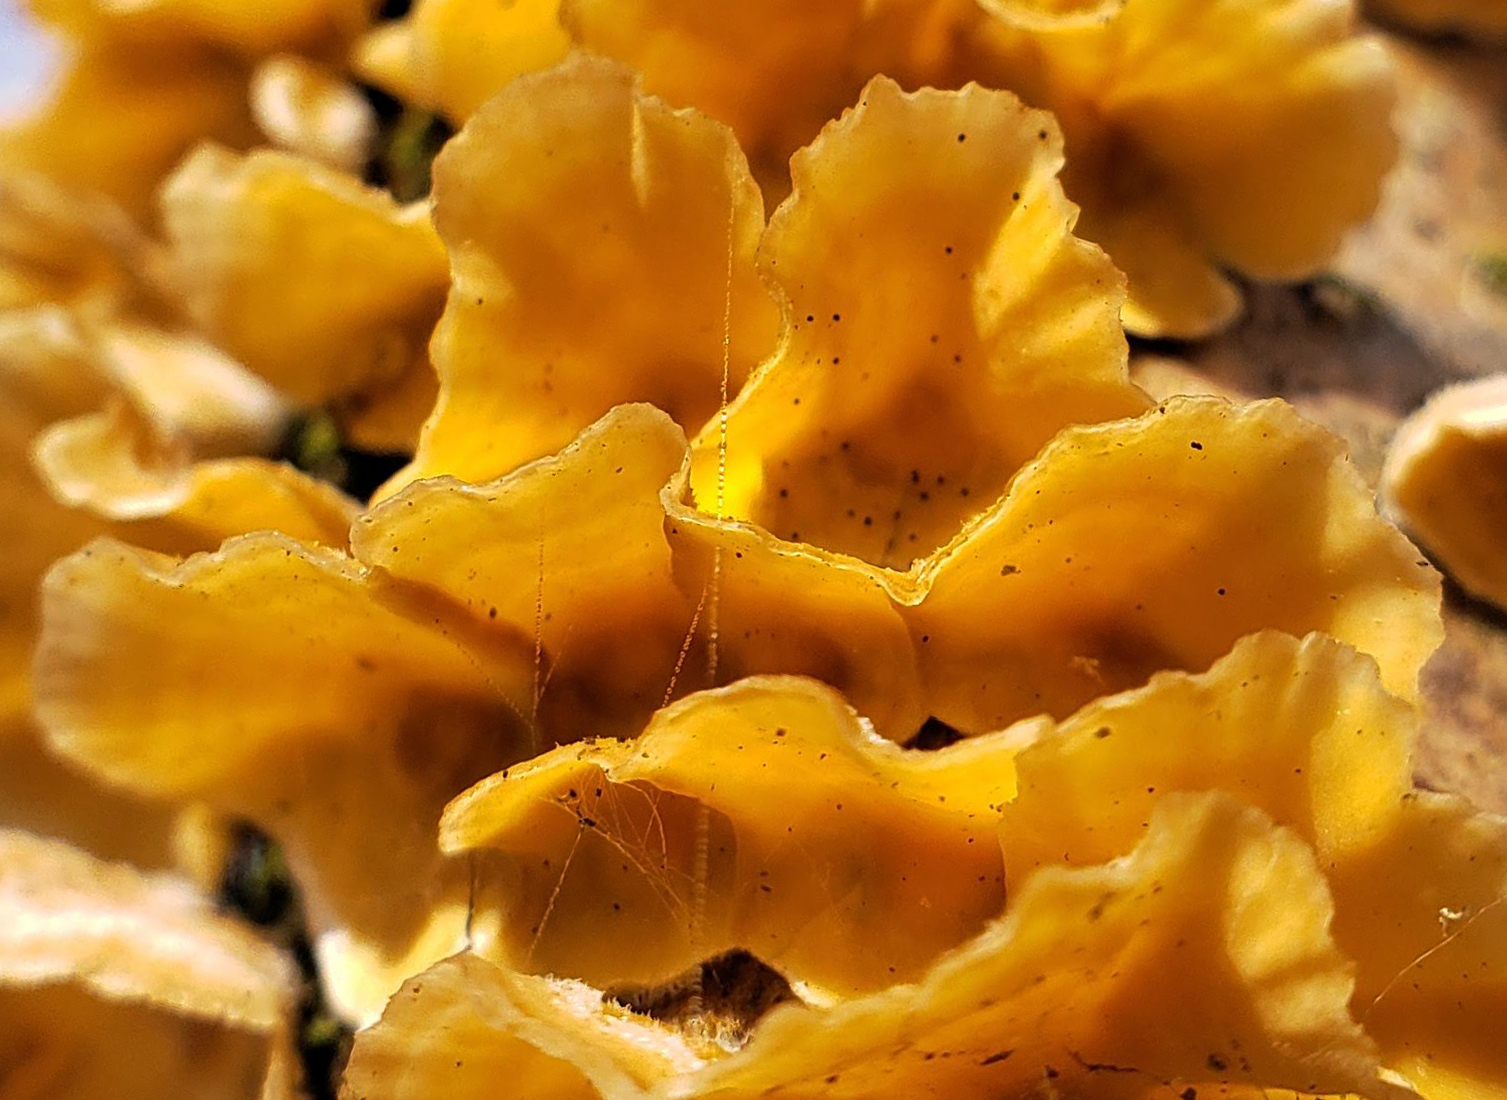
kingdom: Fungi
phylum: Basidiomycota
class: Agaricomycetes
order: Russulales
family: Stereaceae
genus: Stereum
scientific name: Stereum complicatum
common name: Crowded parchment
